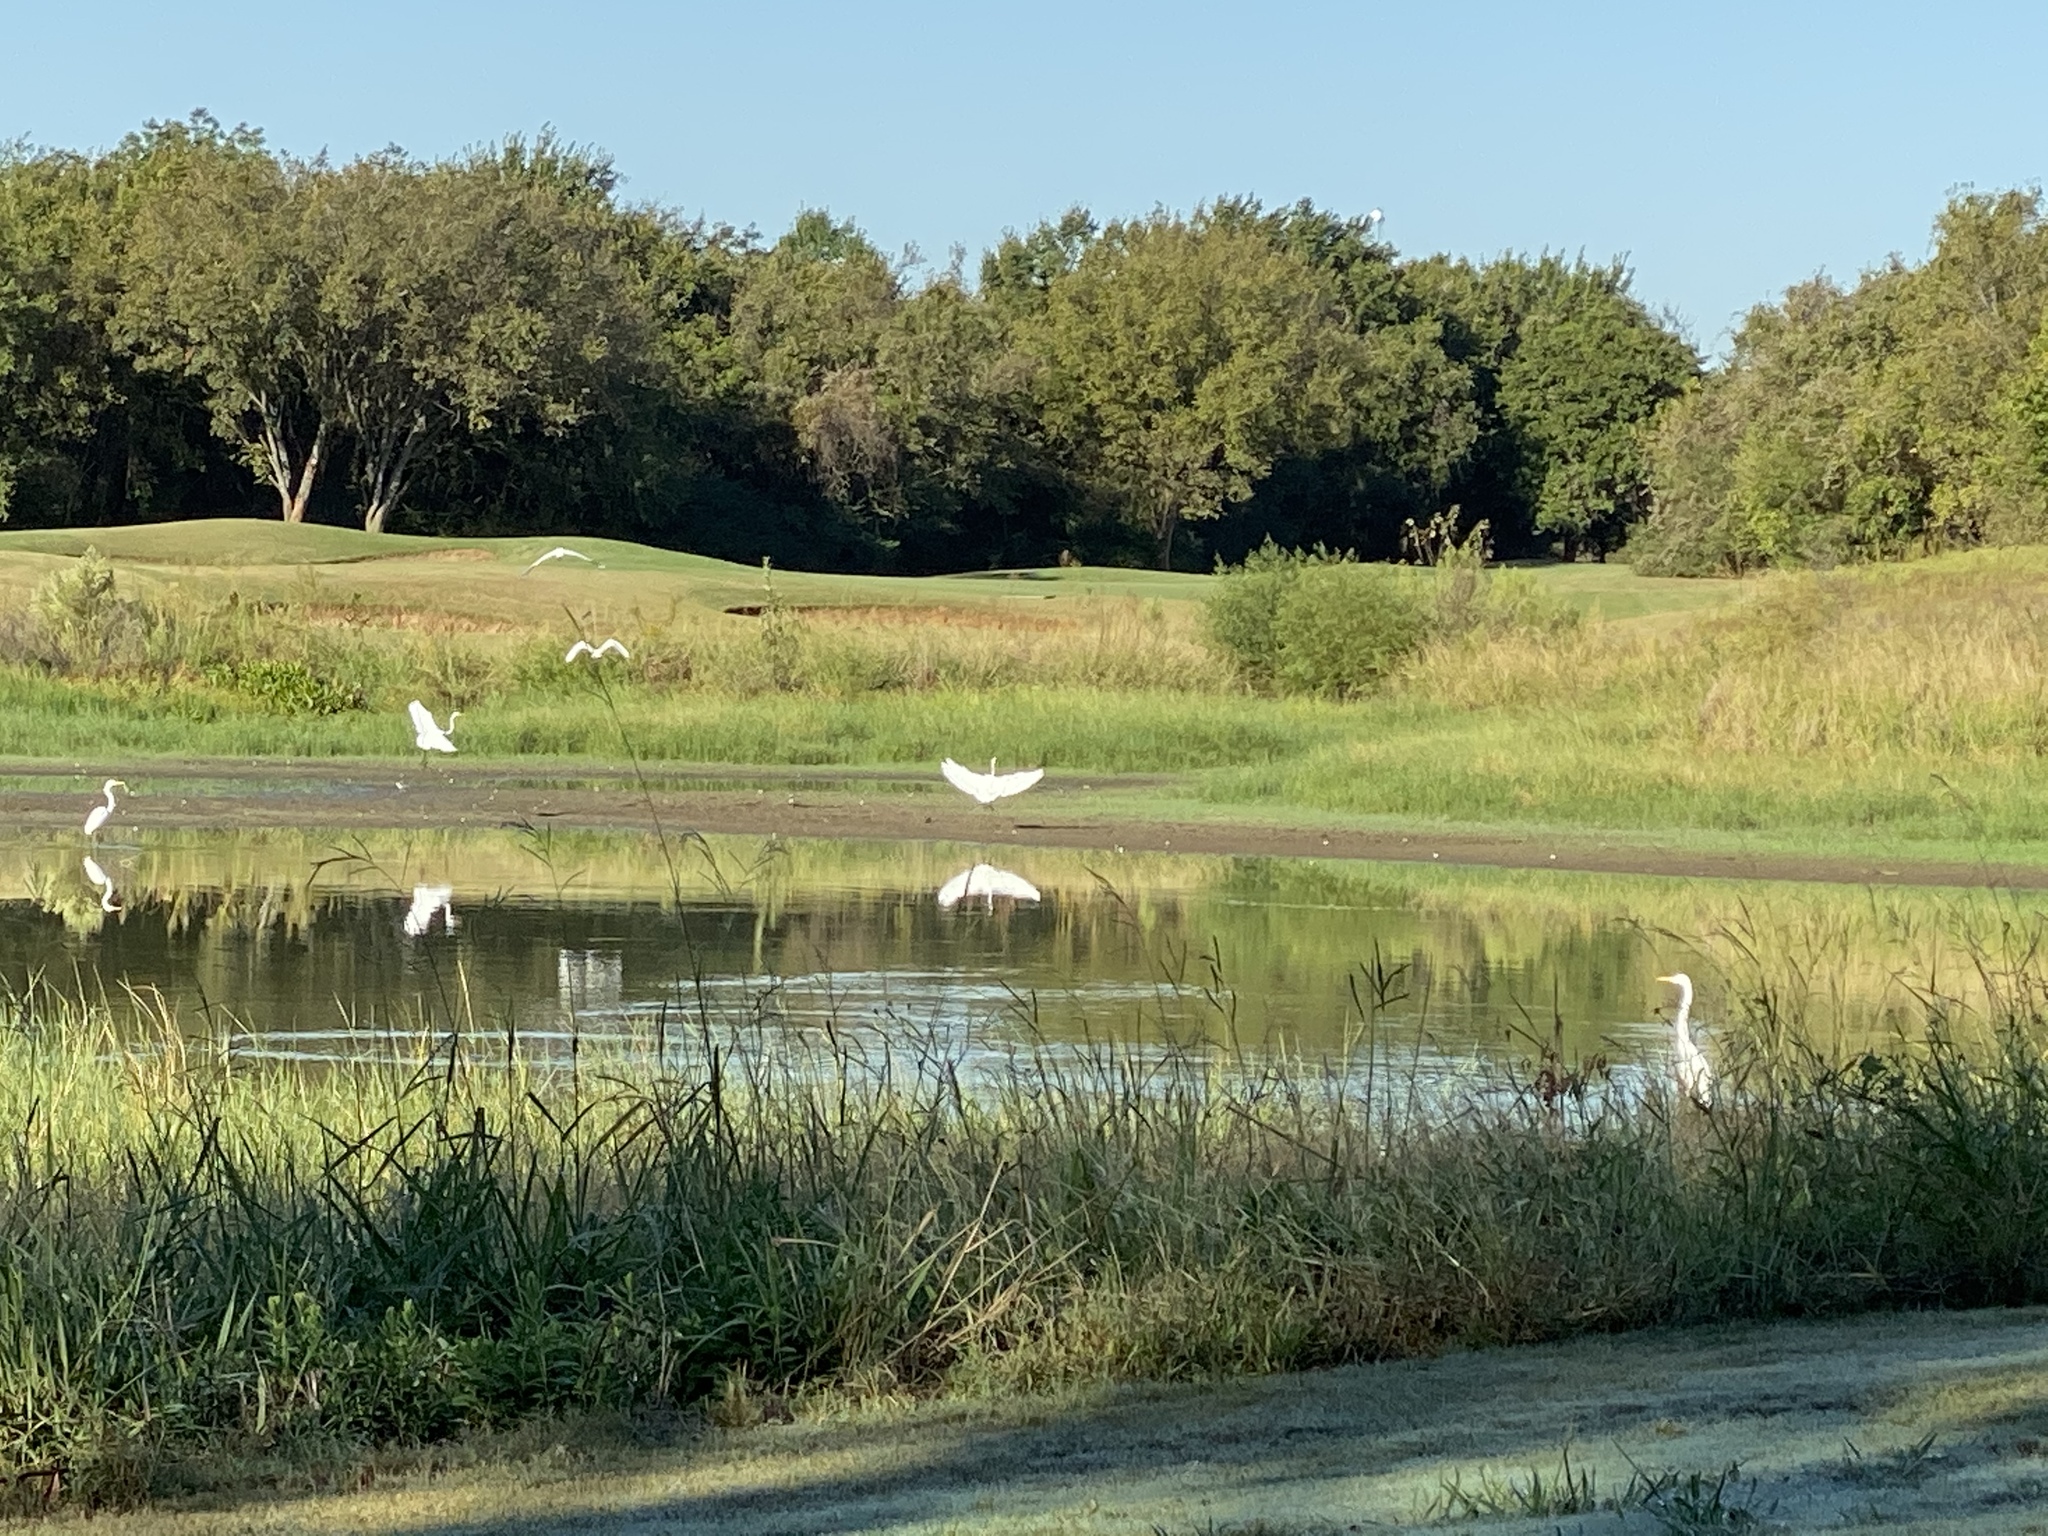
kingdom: Animalia
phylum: Chordata
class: Aves
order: Pelecaniformes
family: Ardeidae
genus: Ardea
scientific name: Ardea alba
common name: Great egret
